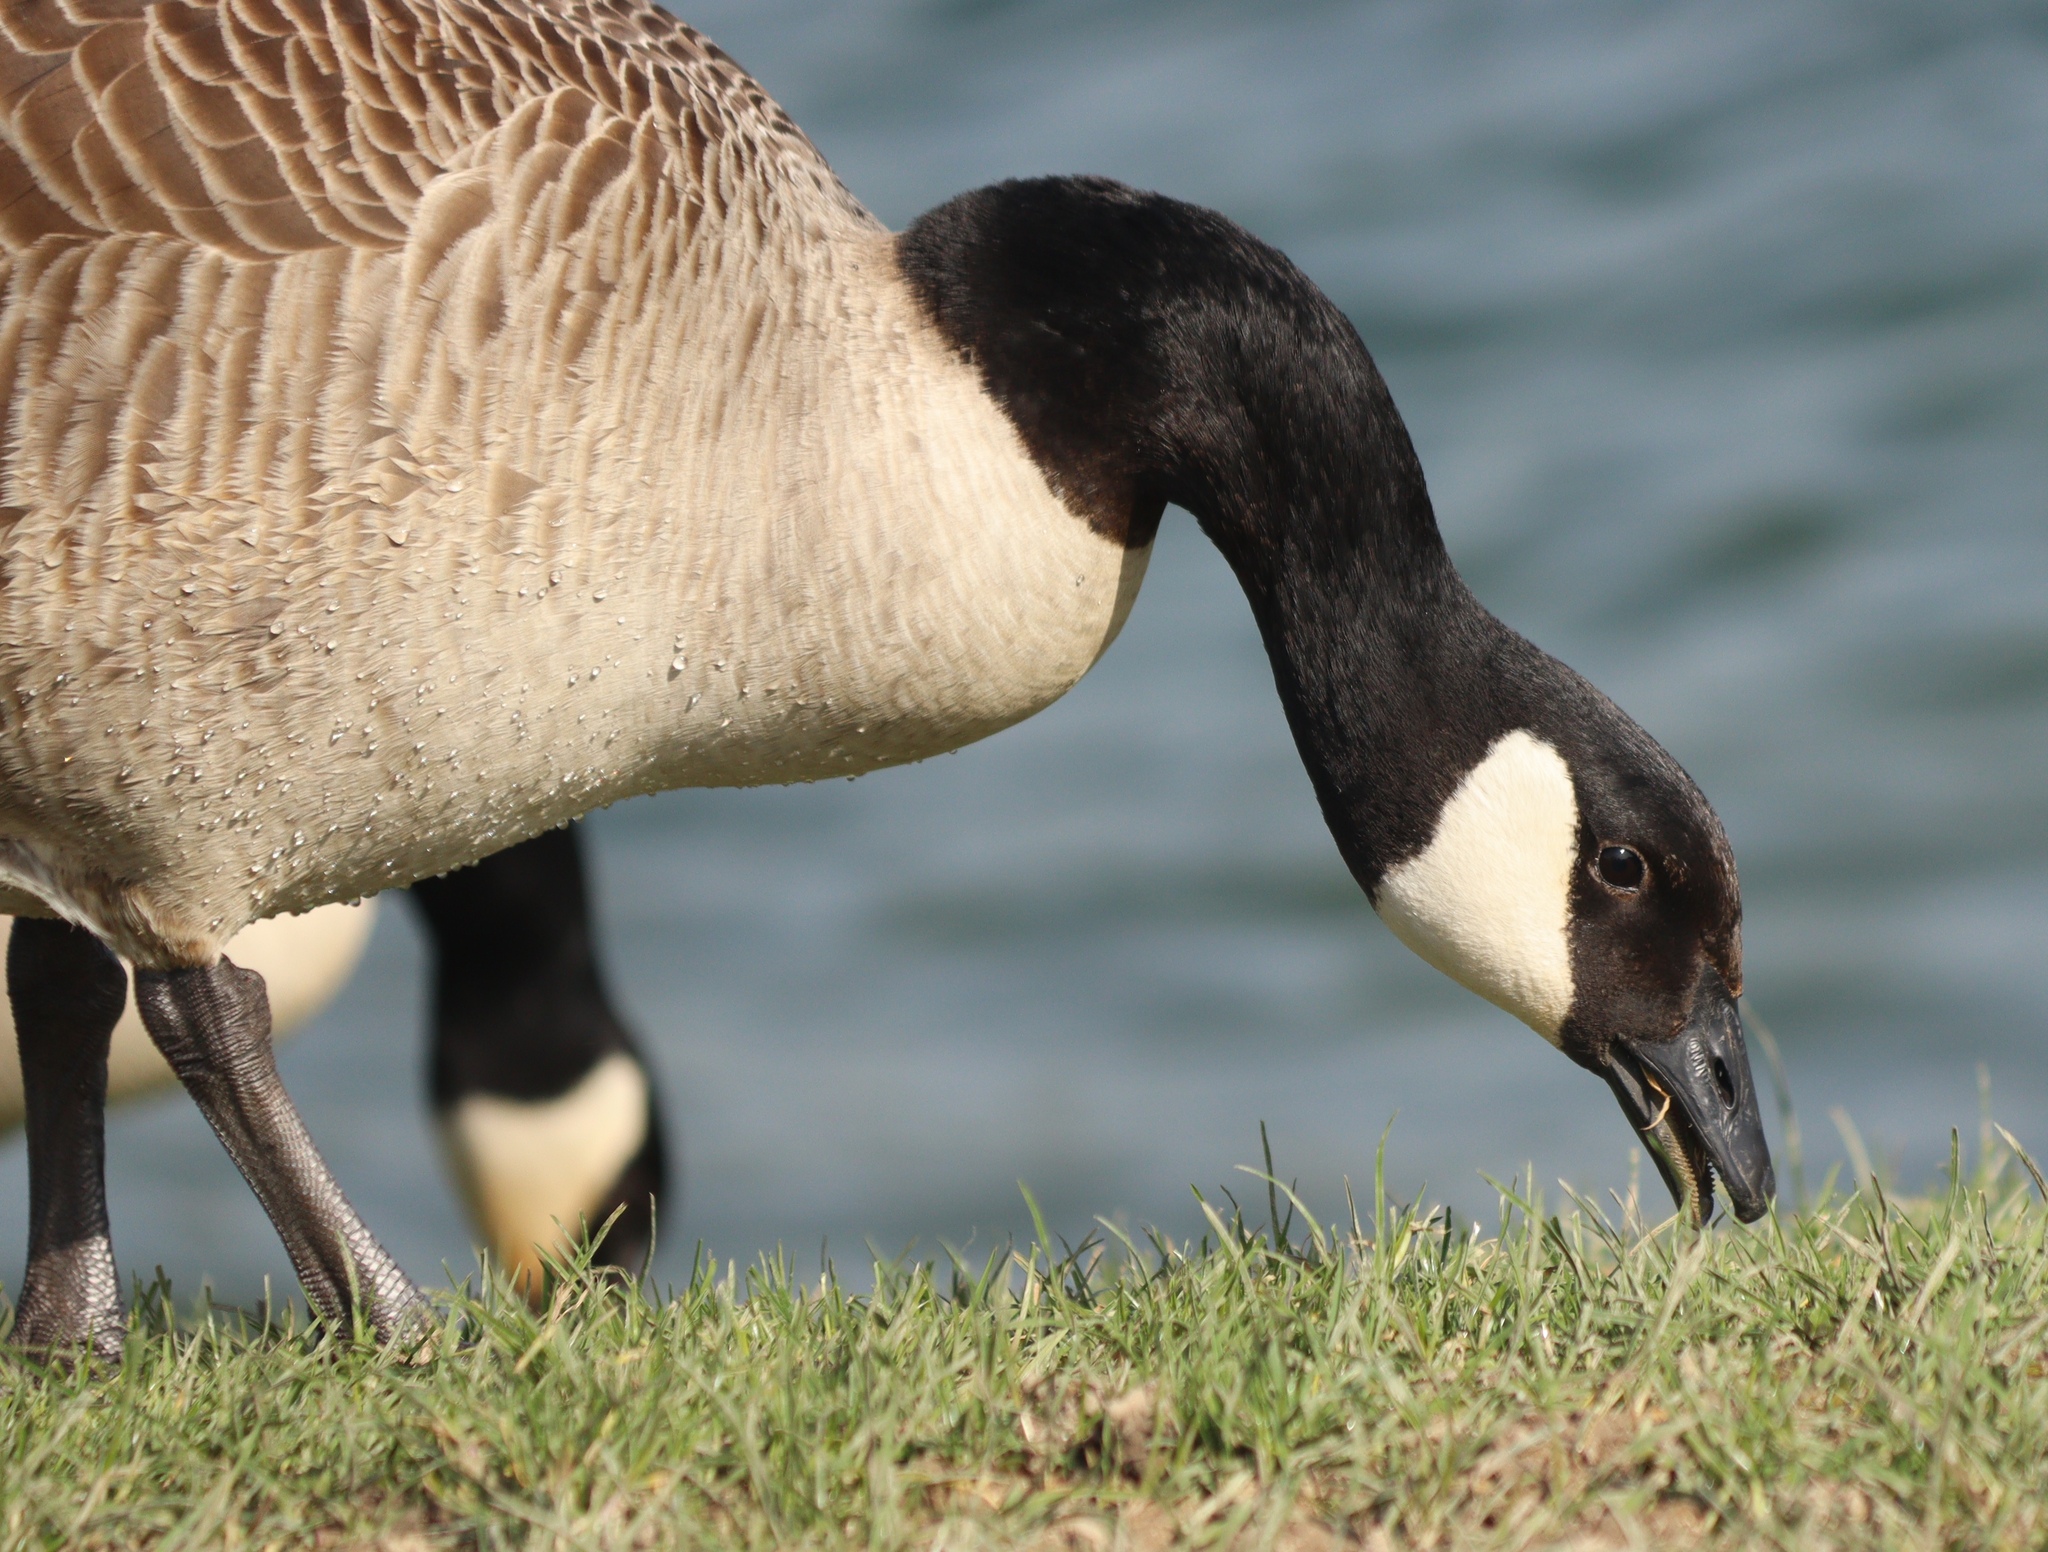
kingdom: Animalia
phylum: Chordata
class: Aves
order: Anseriformes
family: Anatidae
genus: Branta
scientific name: Branta canadensis
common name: Canada goose
